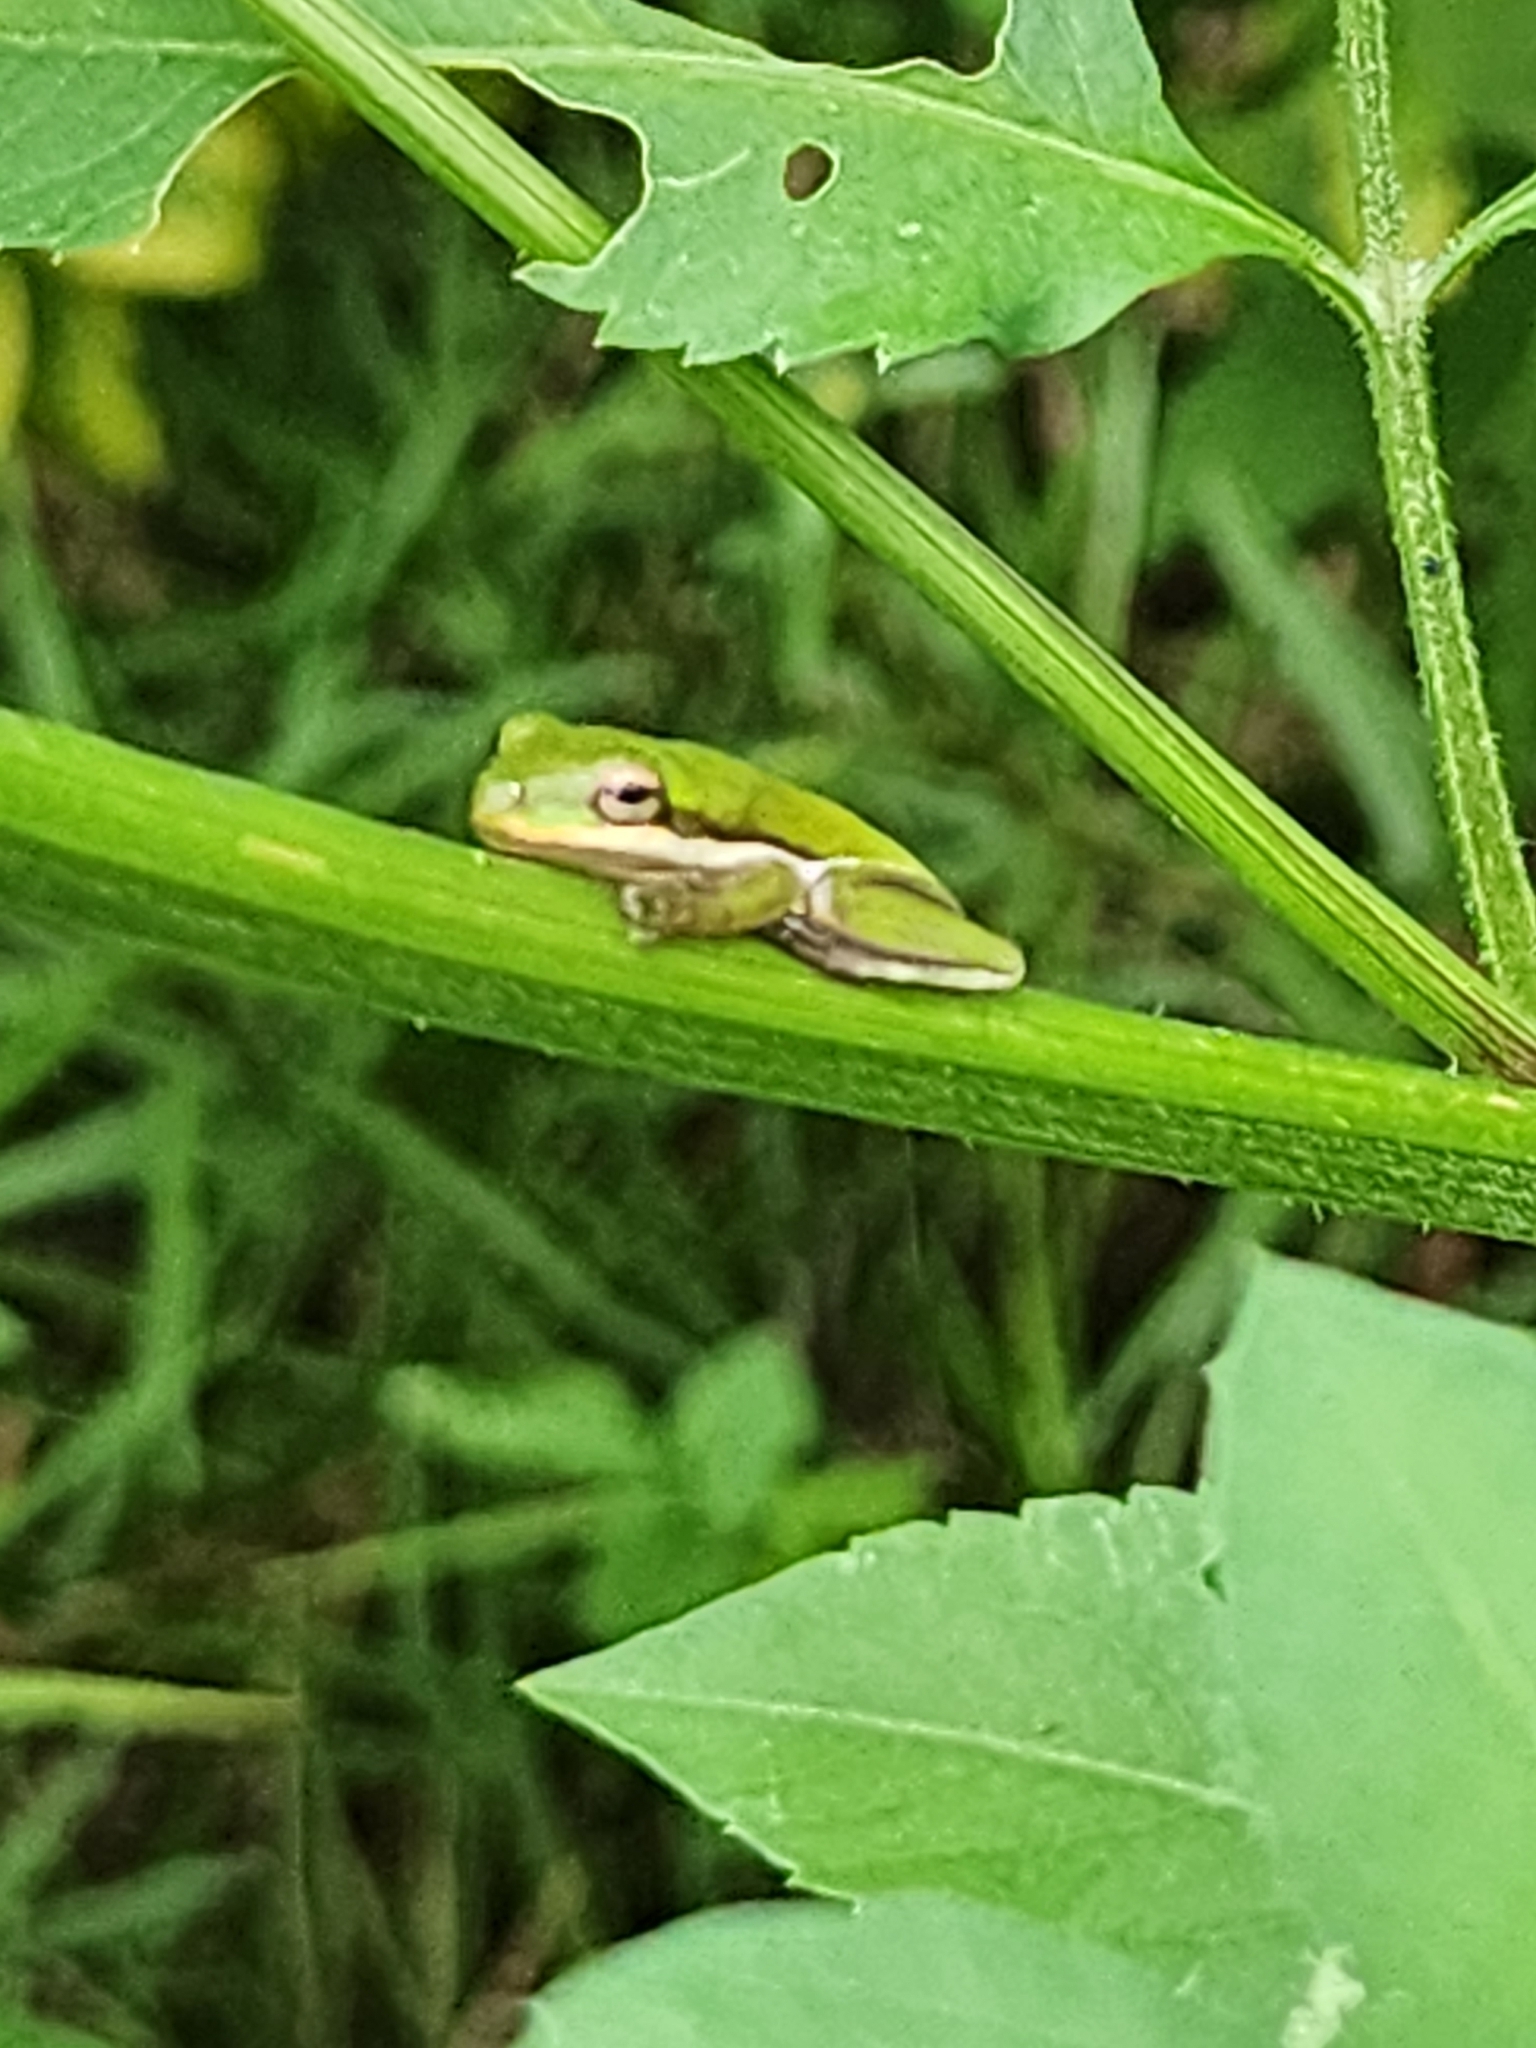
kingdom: Animalia
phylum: Chordata
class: Amphibia
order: Anura
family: Hylidae
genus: Dryophytes
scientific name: Dryophytes cinereus
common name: Green treefrog
